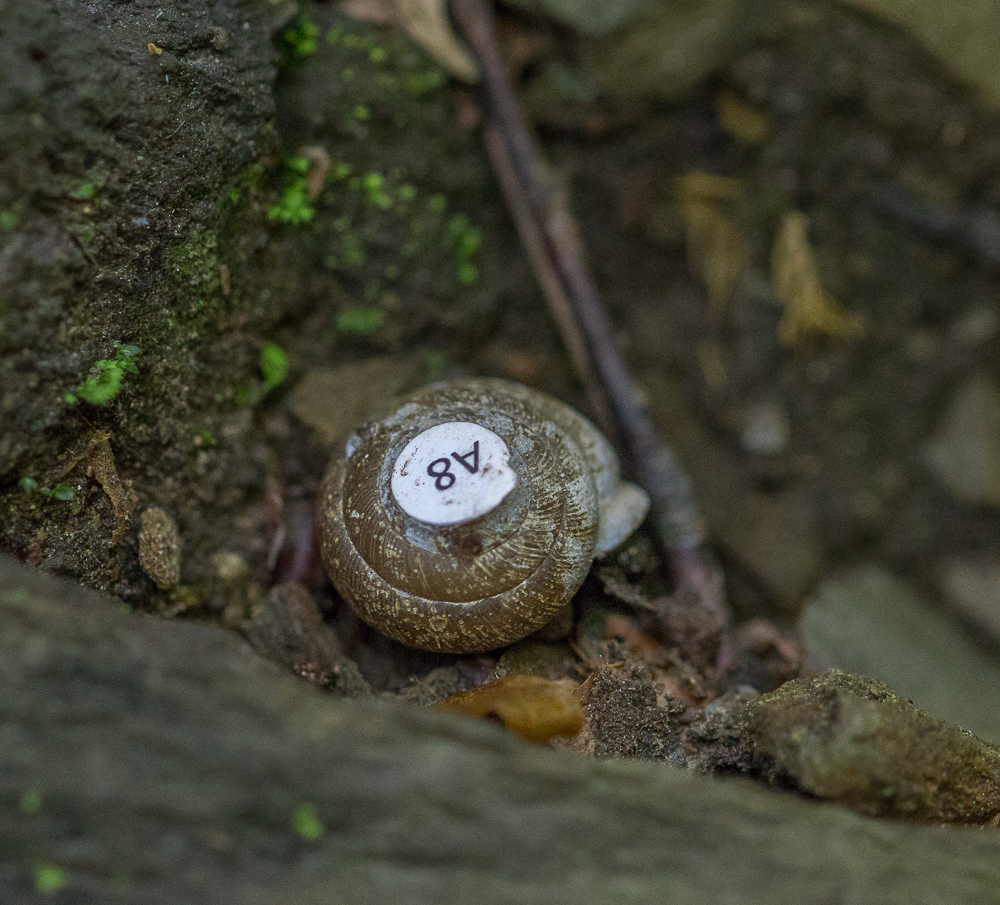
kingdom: Animalia
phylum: Mollusca
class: Gastropoda
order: Stylommatophora
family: Polygyridae
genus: Patera
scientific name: Patera nantahala
